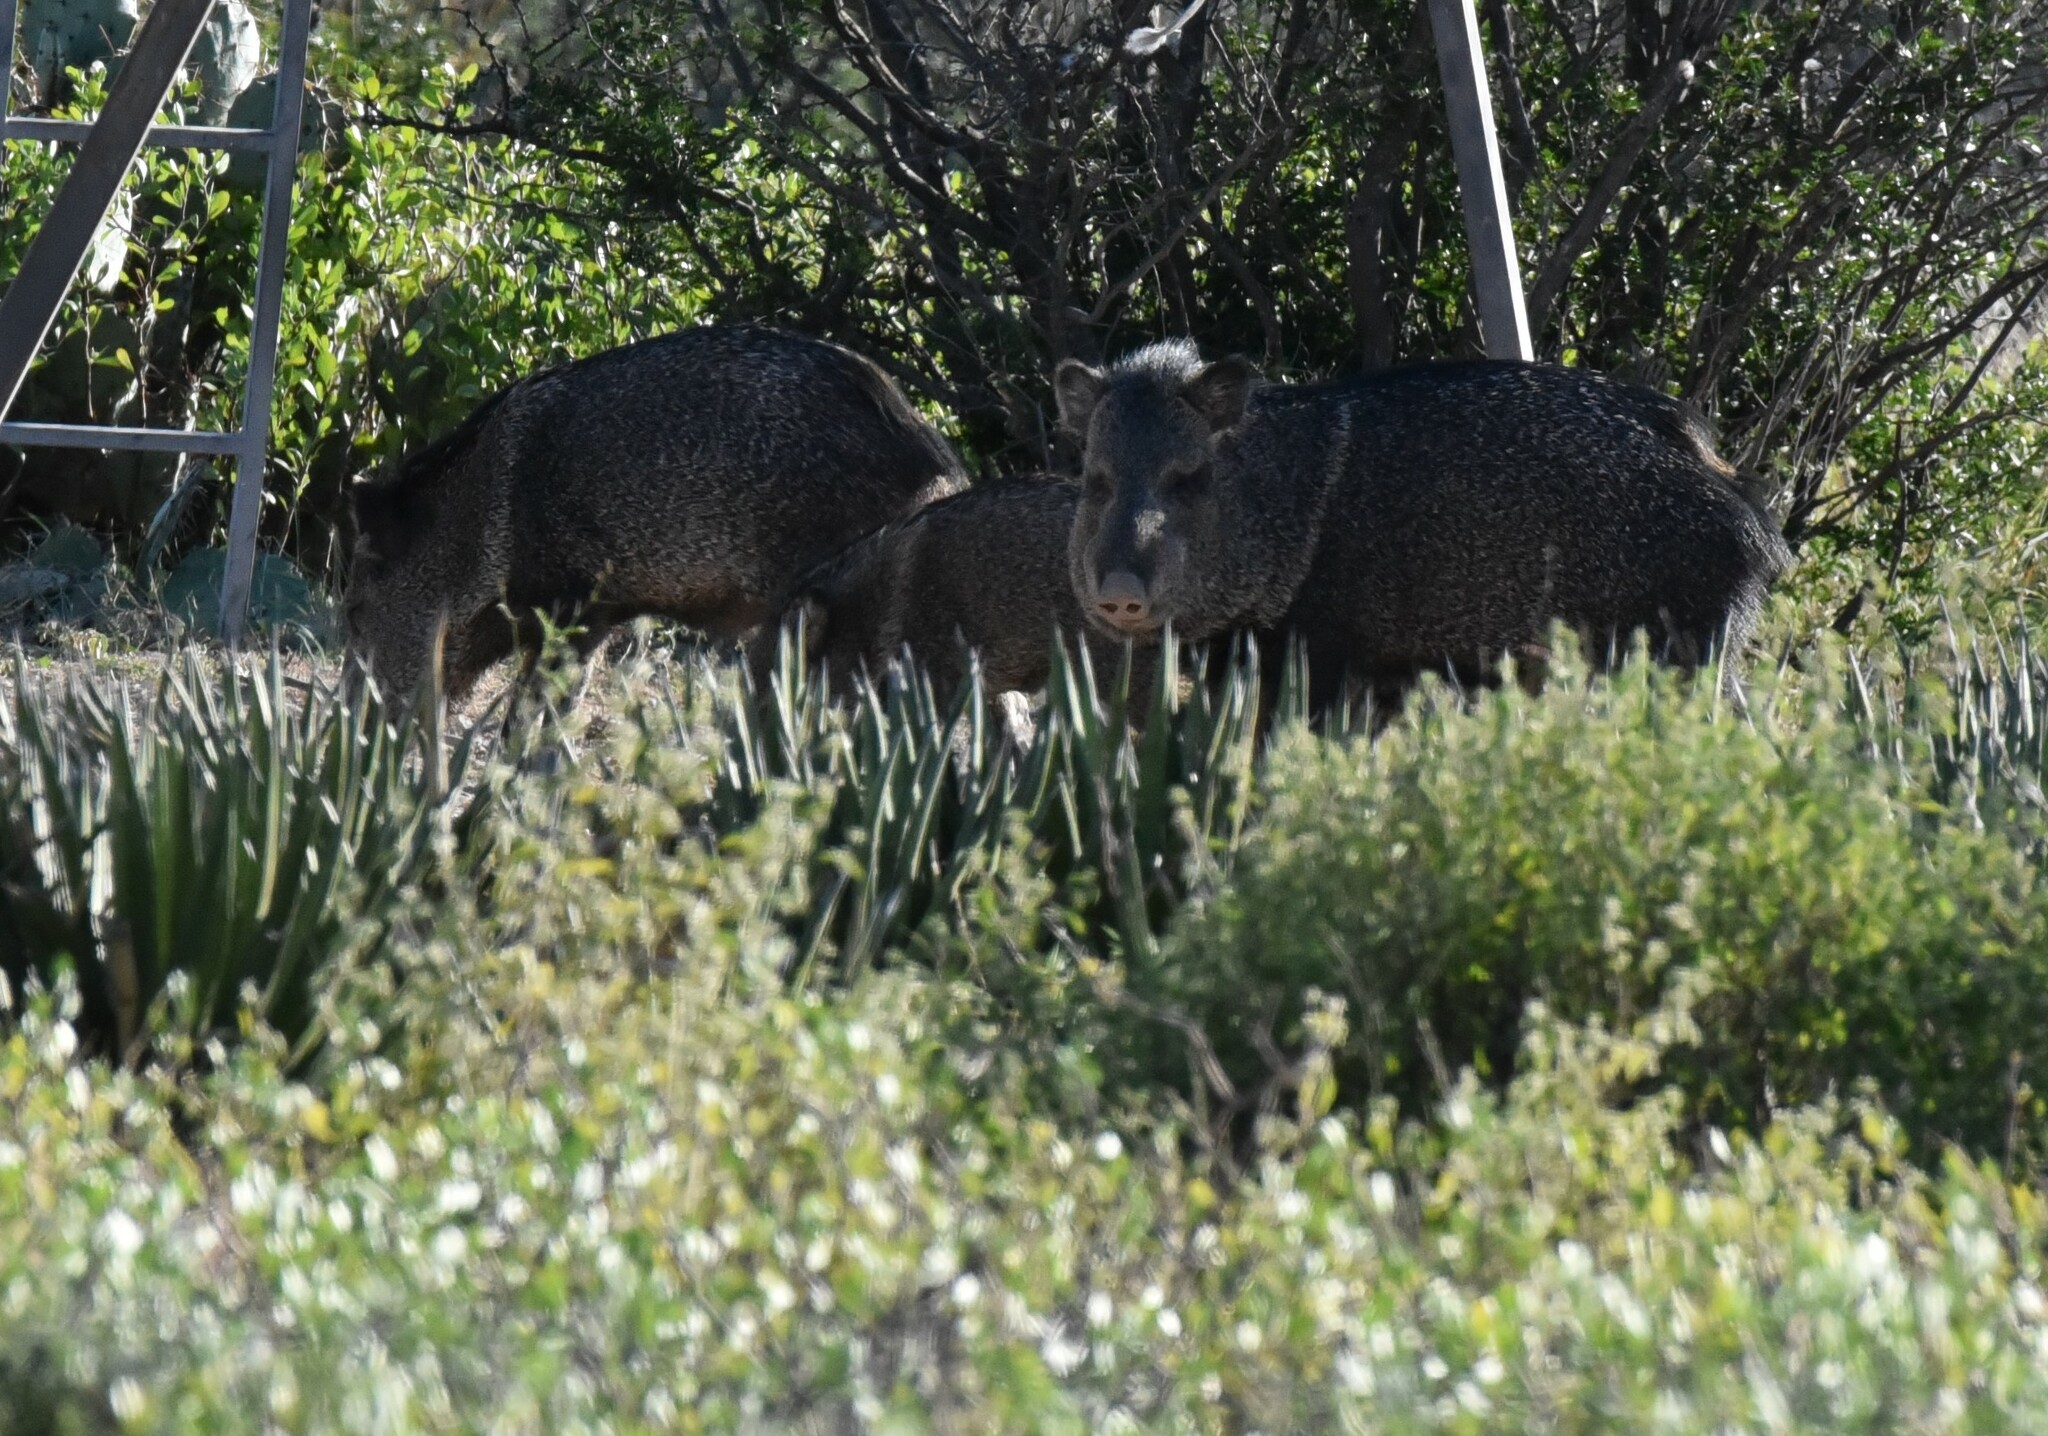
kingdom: Animalia
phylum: Chordata
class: Mammalia
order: Artiodactyla
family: Tayassuidae
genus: Pecari
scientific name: Pecari tajacu
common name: Collared peccary
